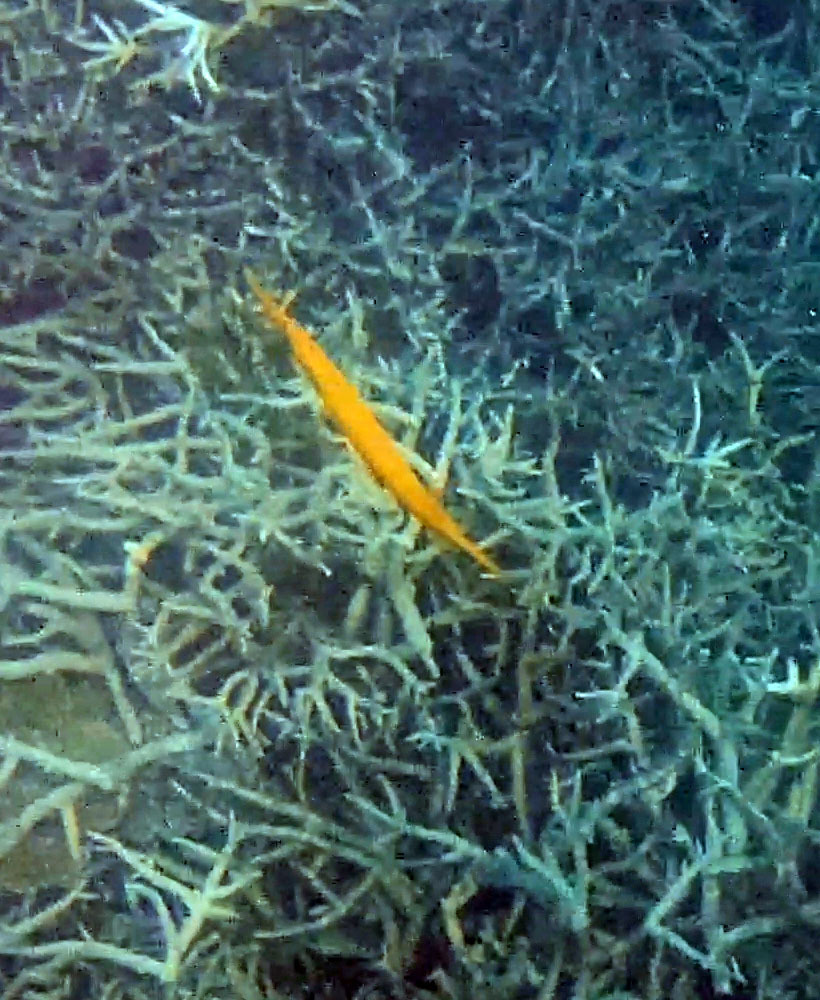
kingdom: Animalia
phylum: Chordata
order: Syngnathiformes
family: Aulostomidae
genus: Aulostomus
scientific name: Aulostomus chinensis
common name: Chinese trumpetfish
